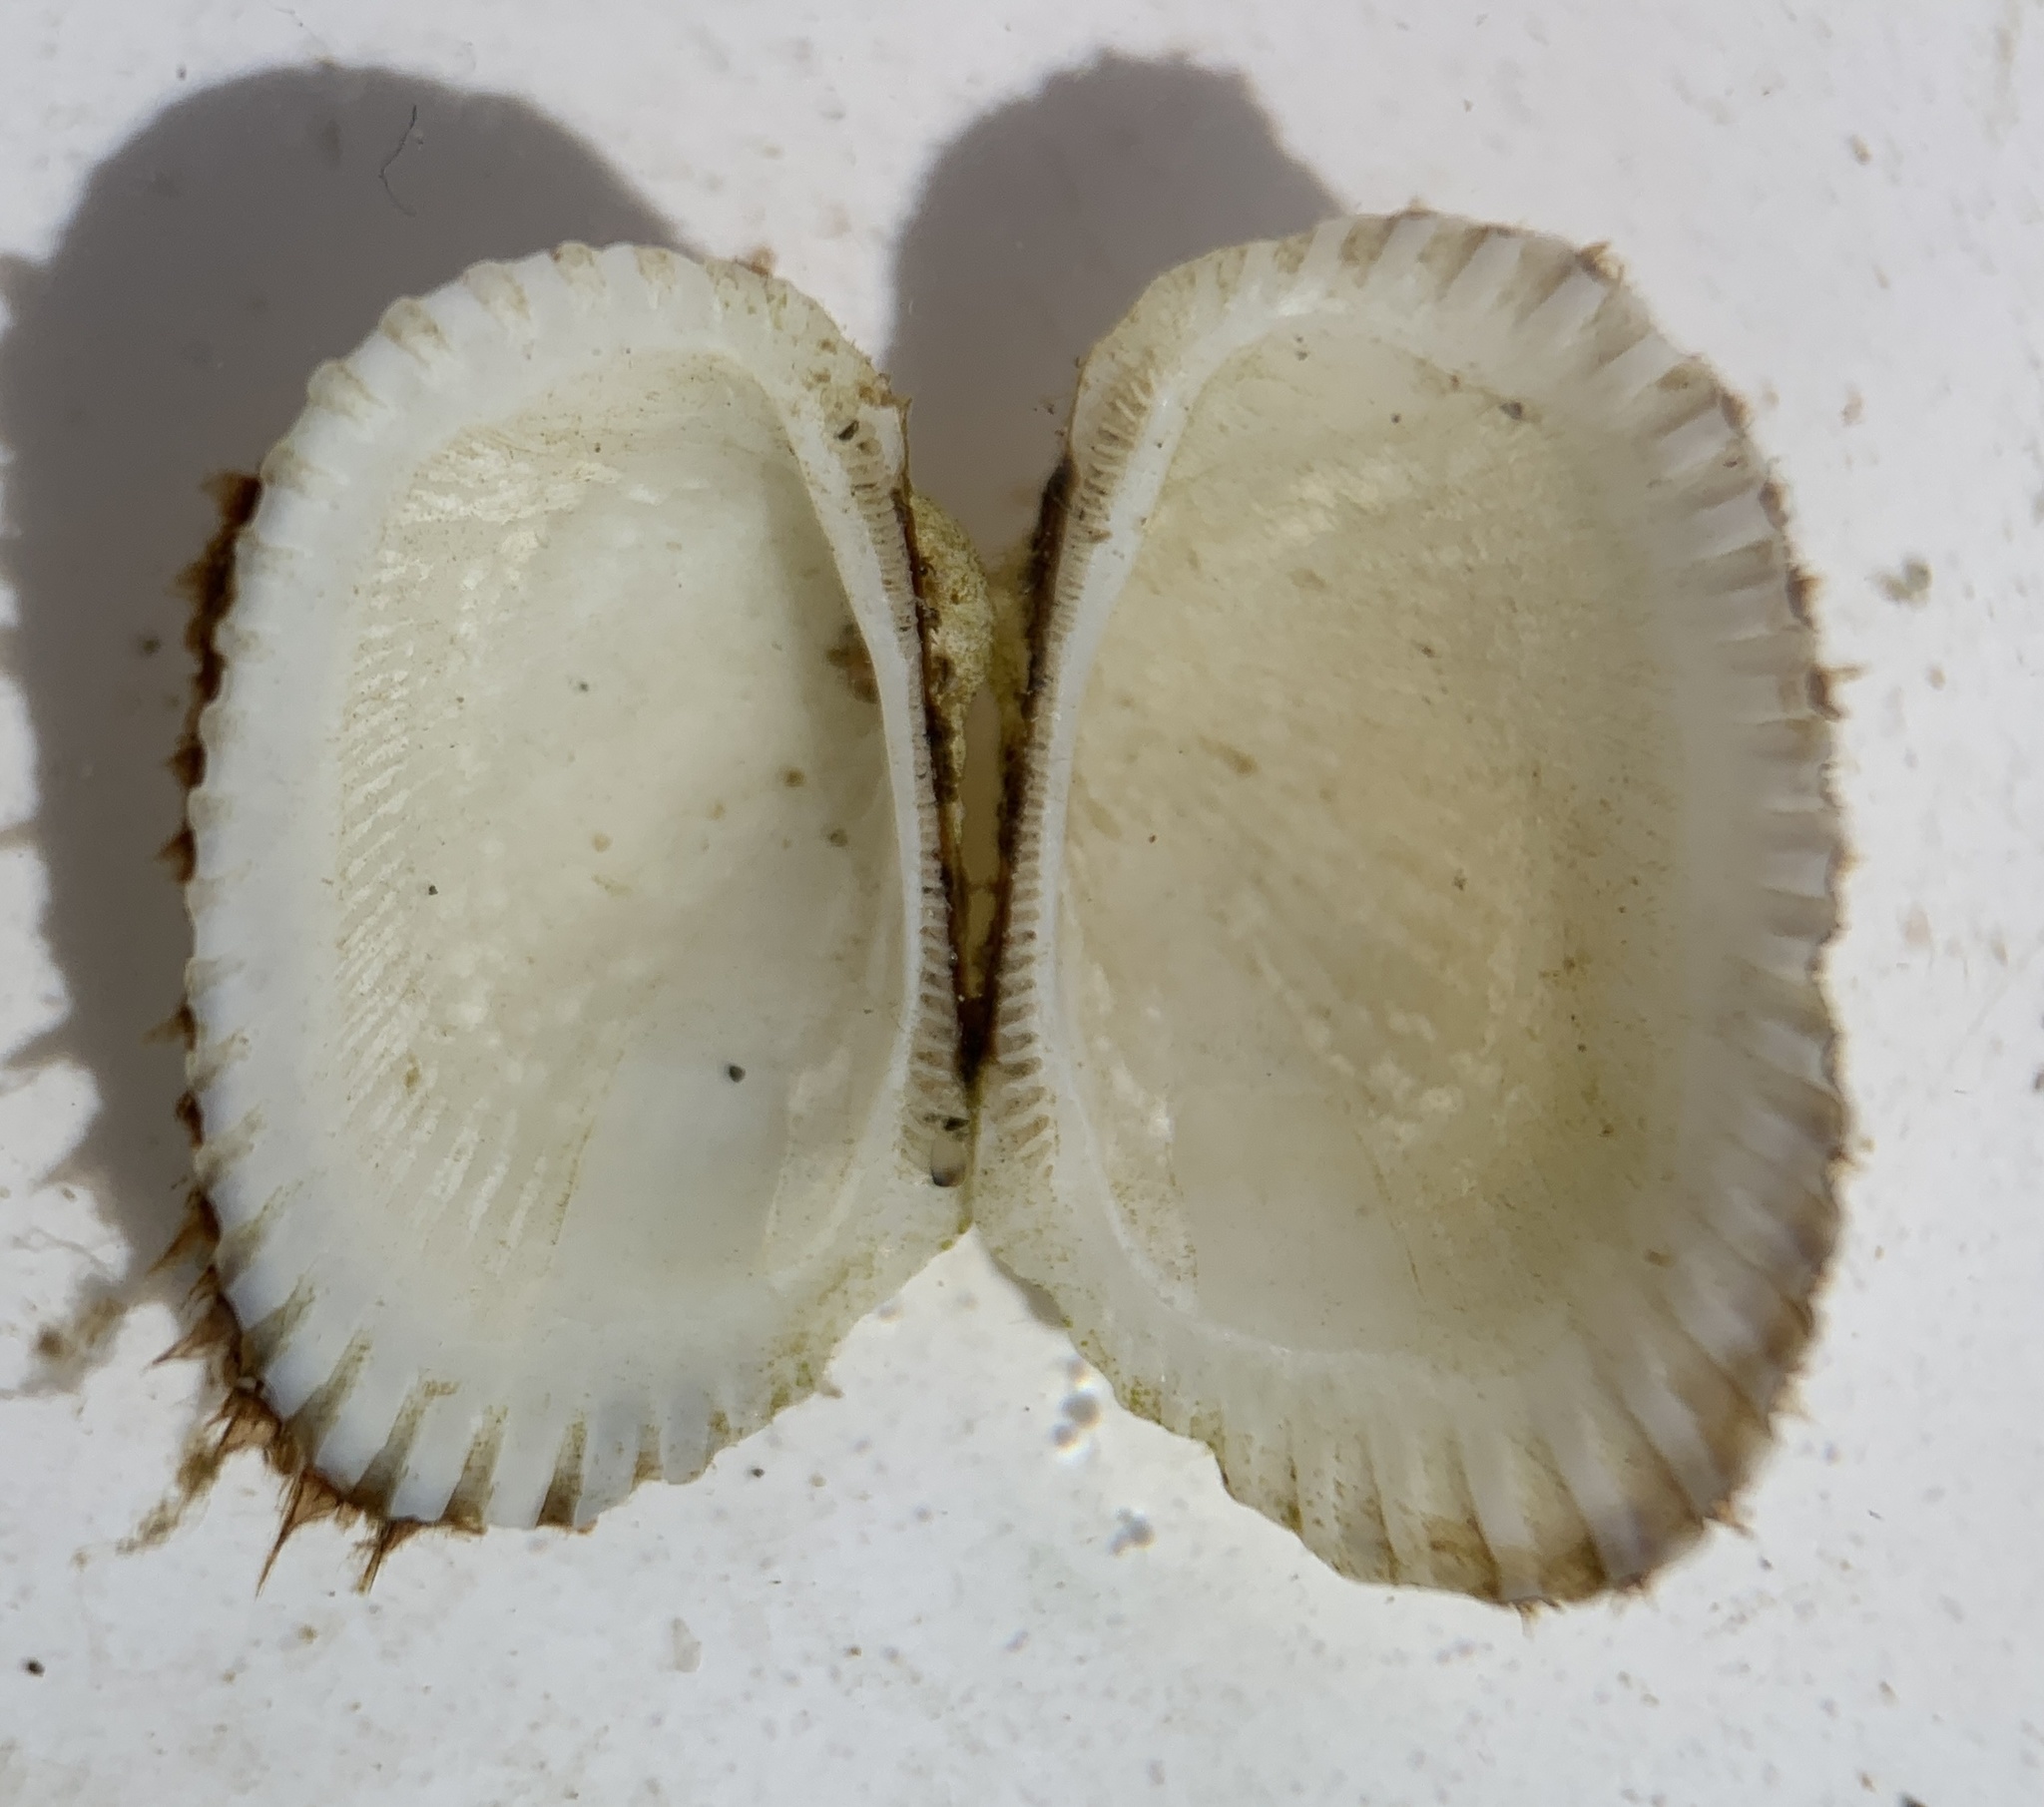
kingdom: Animalia
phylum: Mollusca
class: Bivalvia
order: Arcida
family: Arcidae
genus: Anadara
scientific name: Anadara transversa
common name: Transverse ark
